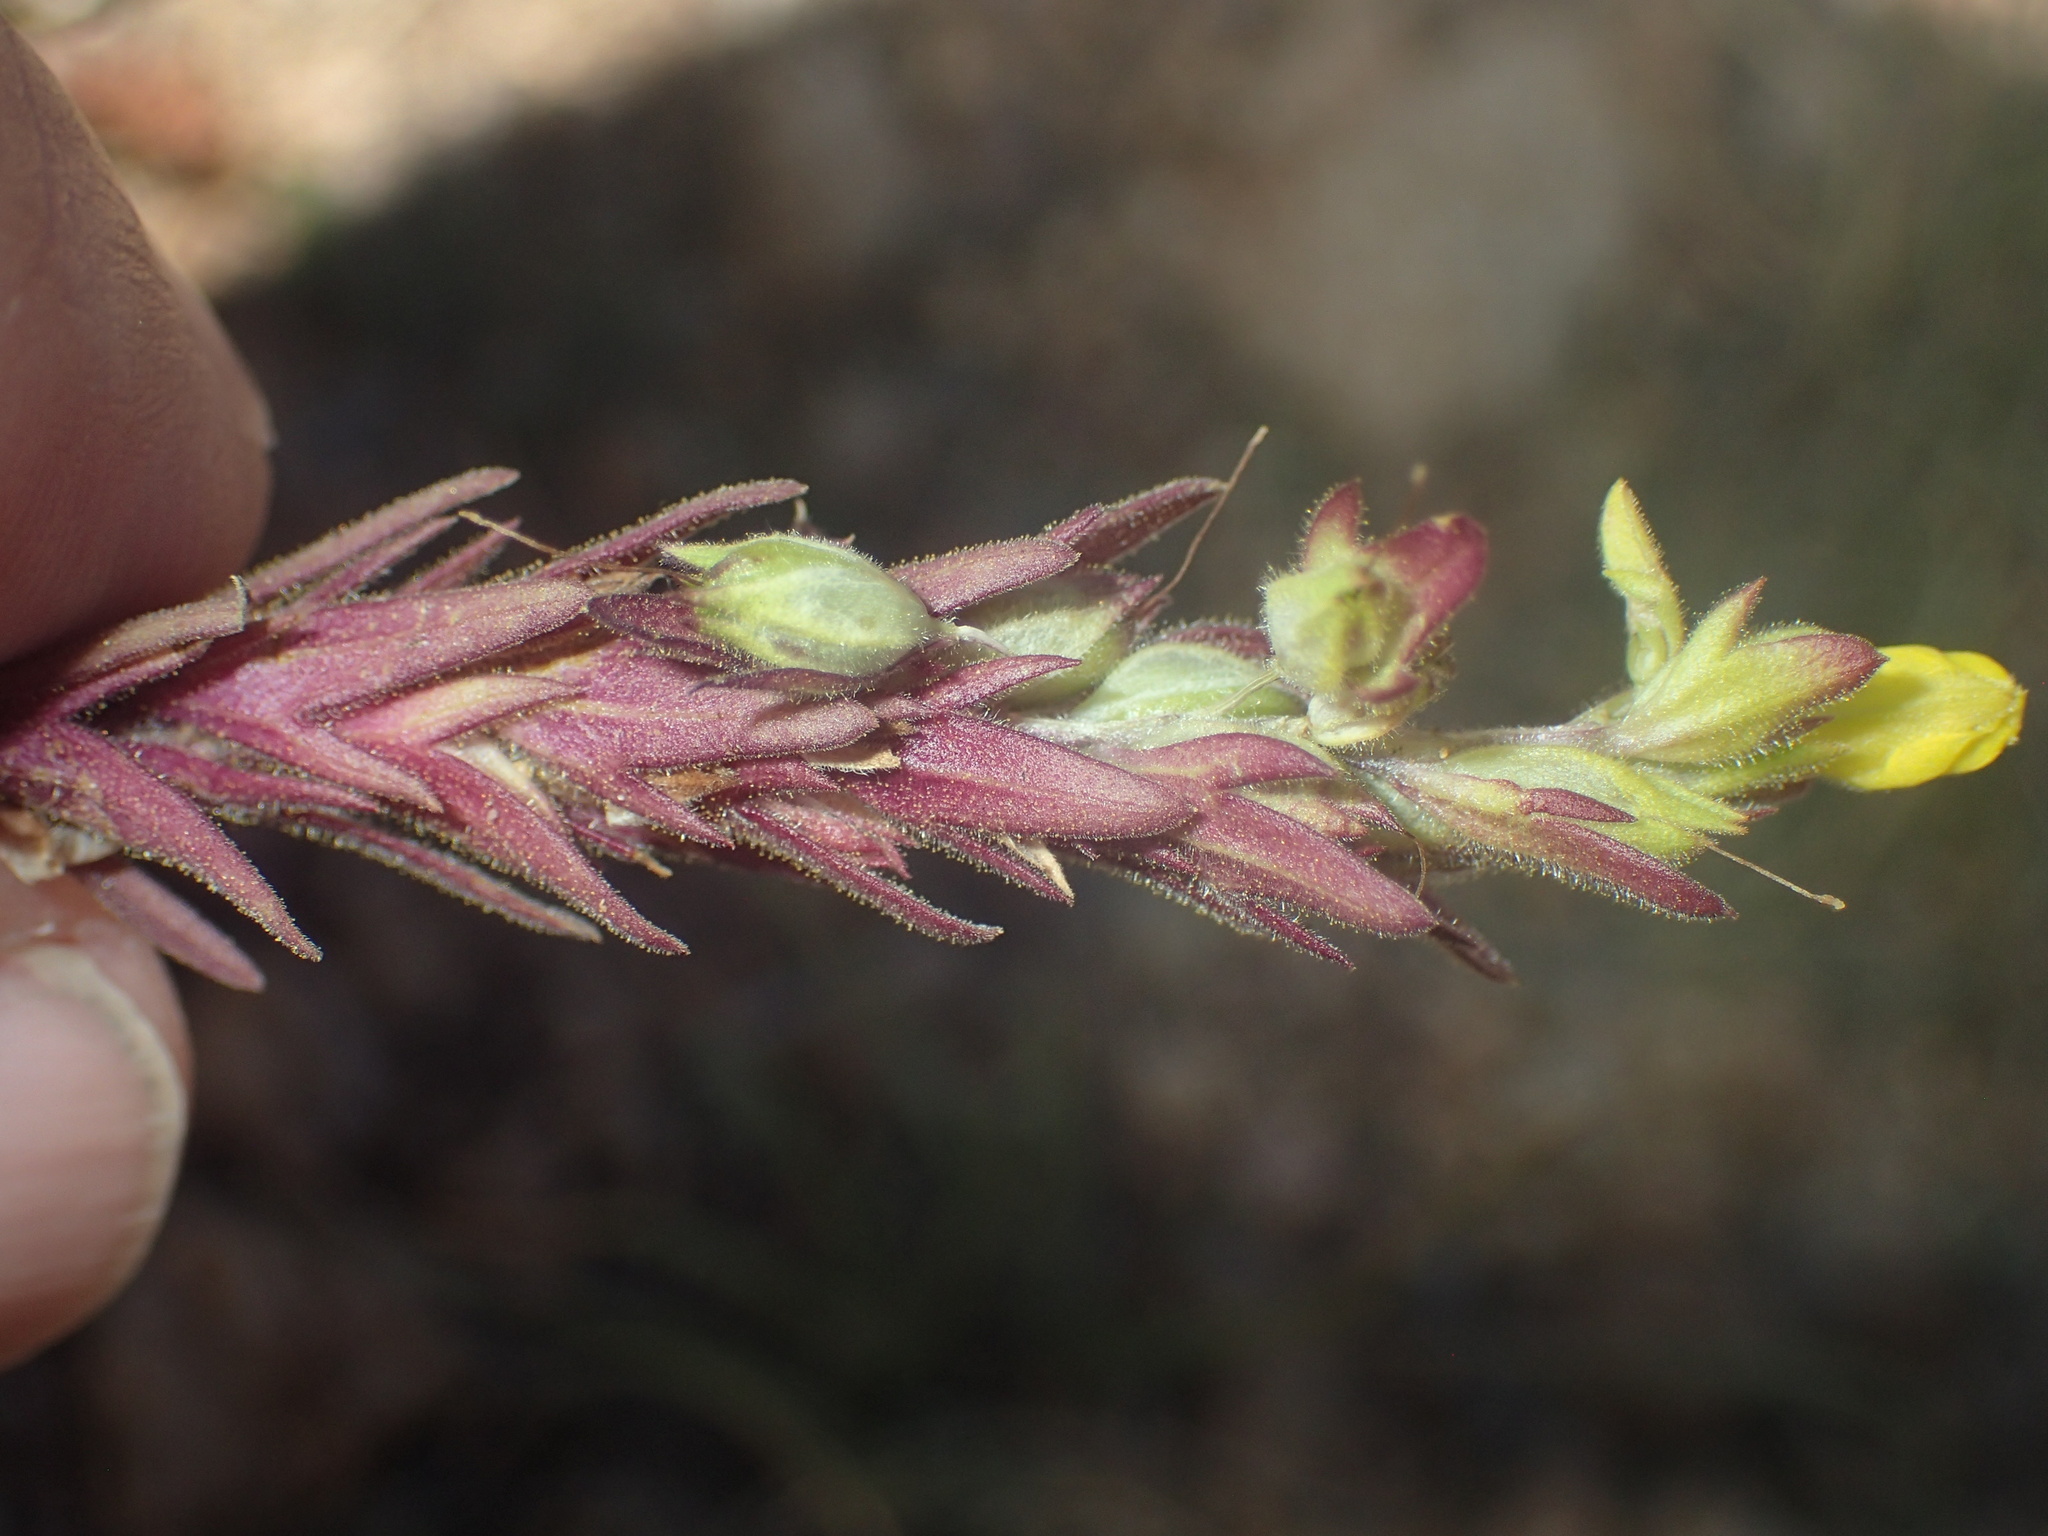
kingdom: Plantae
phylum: Tracheophyta
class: Magnoliopsida
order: Lamiales
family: Orobanchaceae
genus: Orthocarpus
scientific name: Orthocarpus luteus
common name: Golden-tongue owl's-clover
